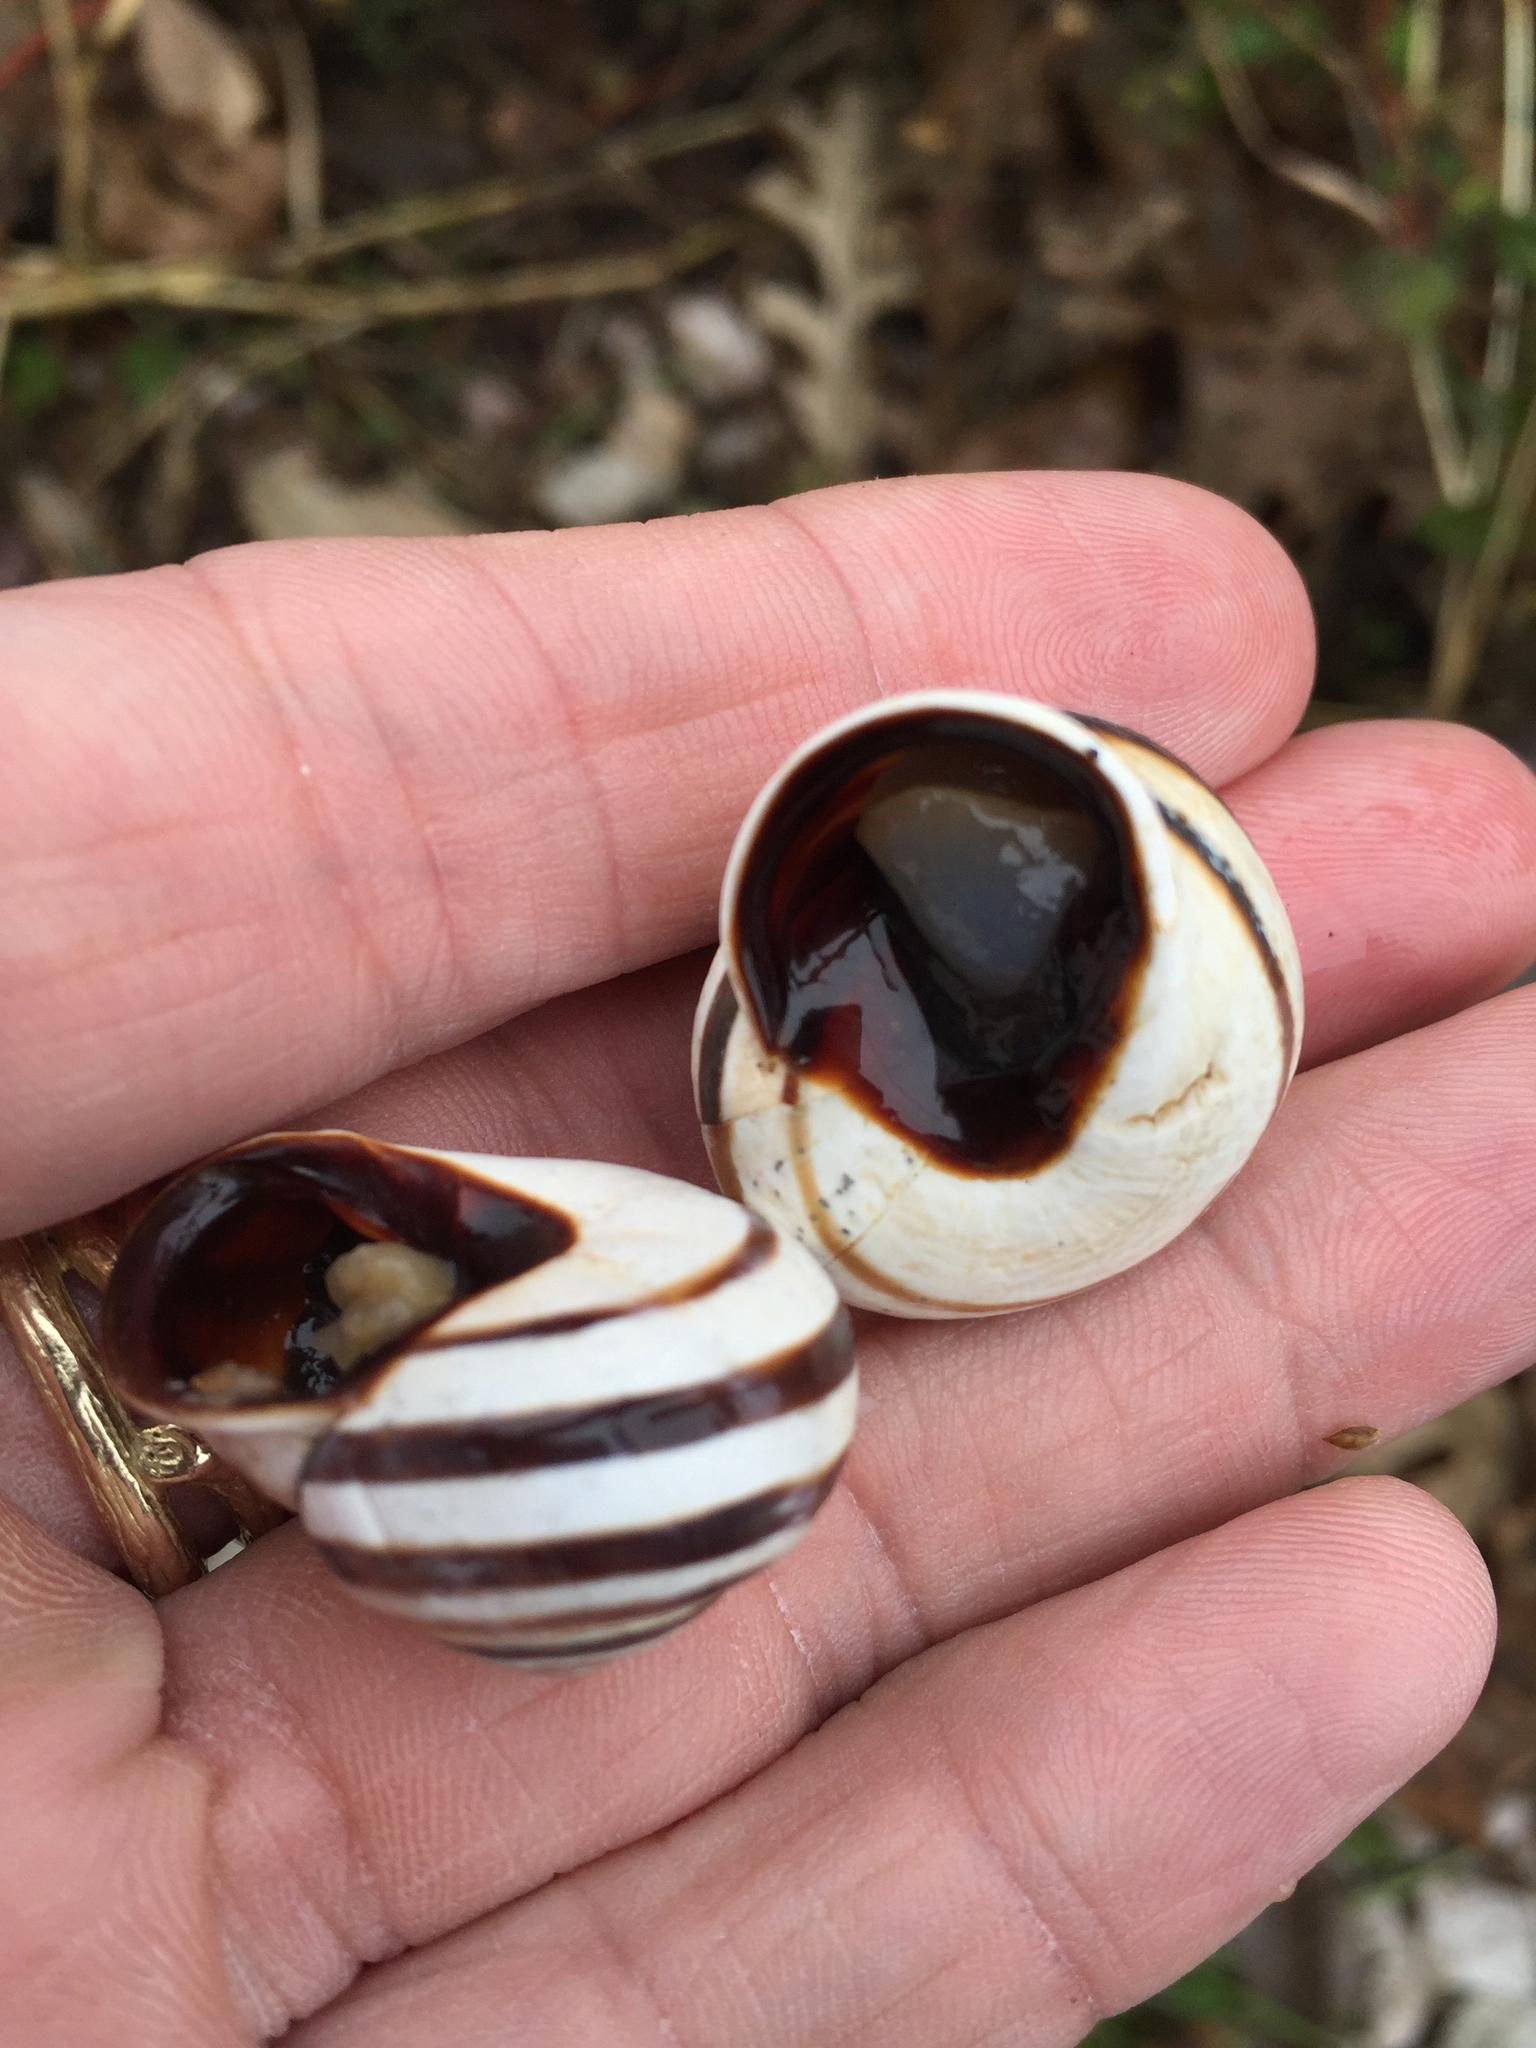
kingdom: Animalia
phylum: Mollusca
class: Gastropoda
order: Stylommatophora
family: Helicidae
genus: Otala
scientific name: Otala lactea
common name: Milk snail
